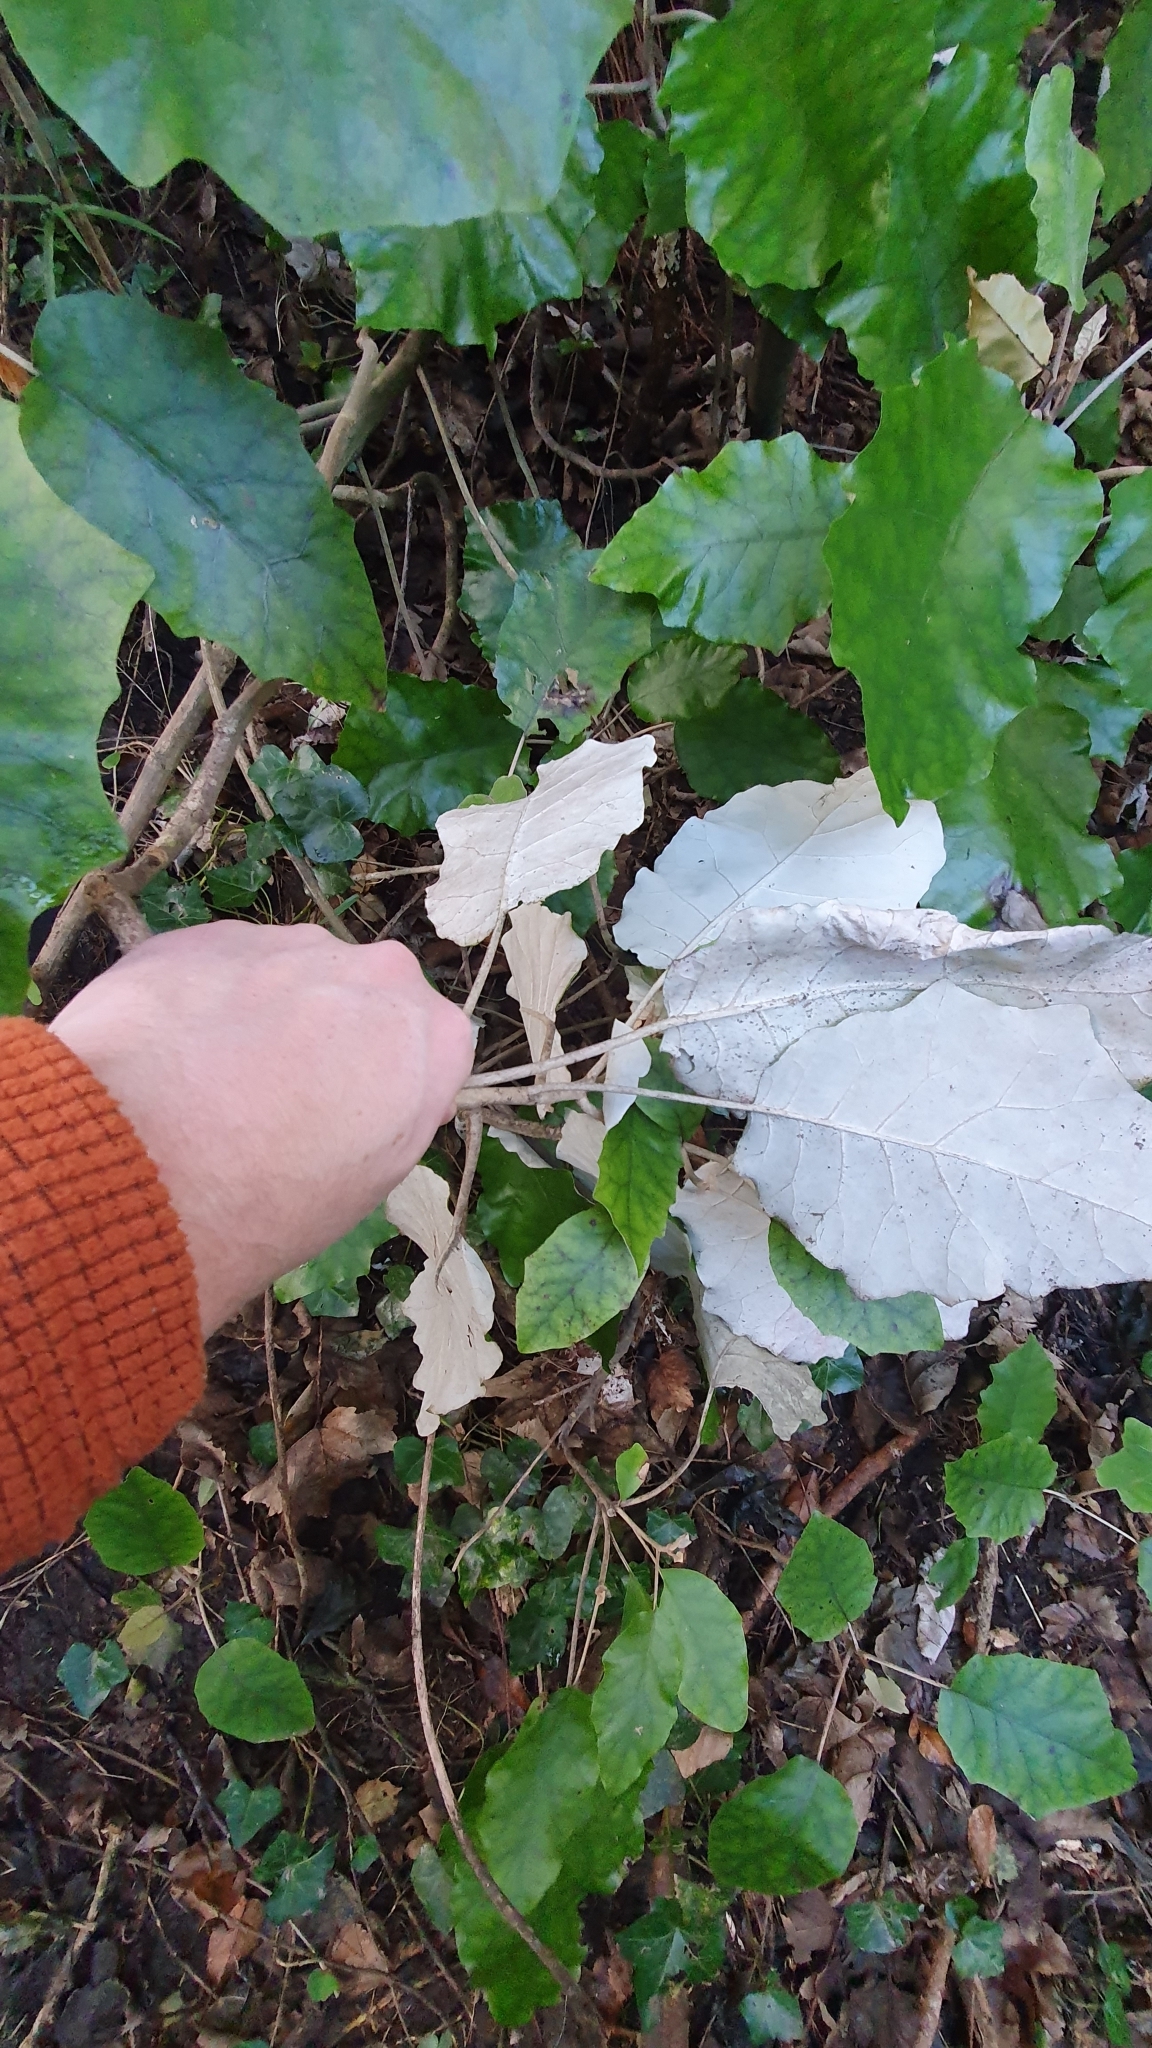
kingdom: Plantae
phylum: Tracheophyta
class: Magnoliopsida
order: Asterales
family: Asteraceae
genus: Brachyglottis
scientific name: Brachyglottis repanda
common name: Hedge ragwort
